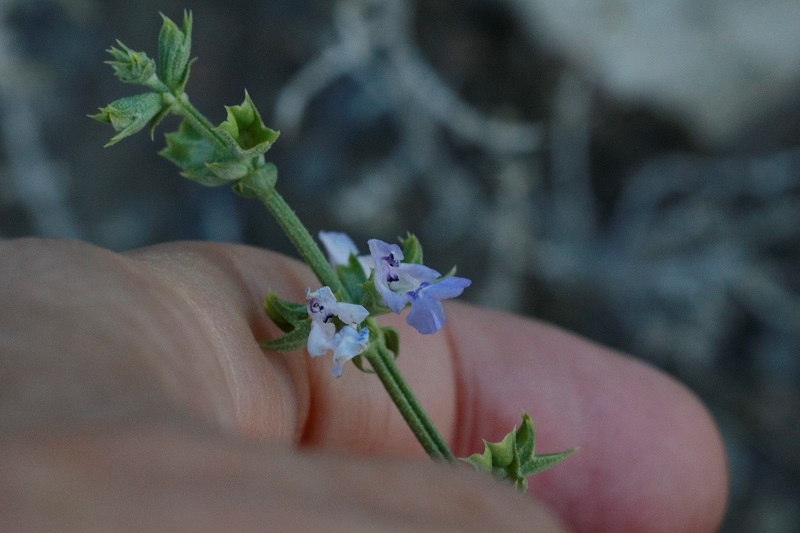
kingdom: Plantae
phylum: Tracheophyta
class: Magnoliopsida
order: Lamiales
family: Lamiaceae
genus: Salvia
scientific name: Salvia stenophylla
